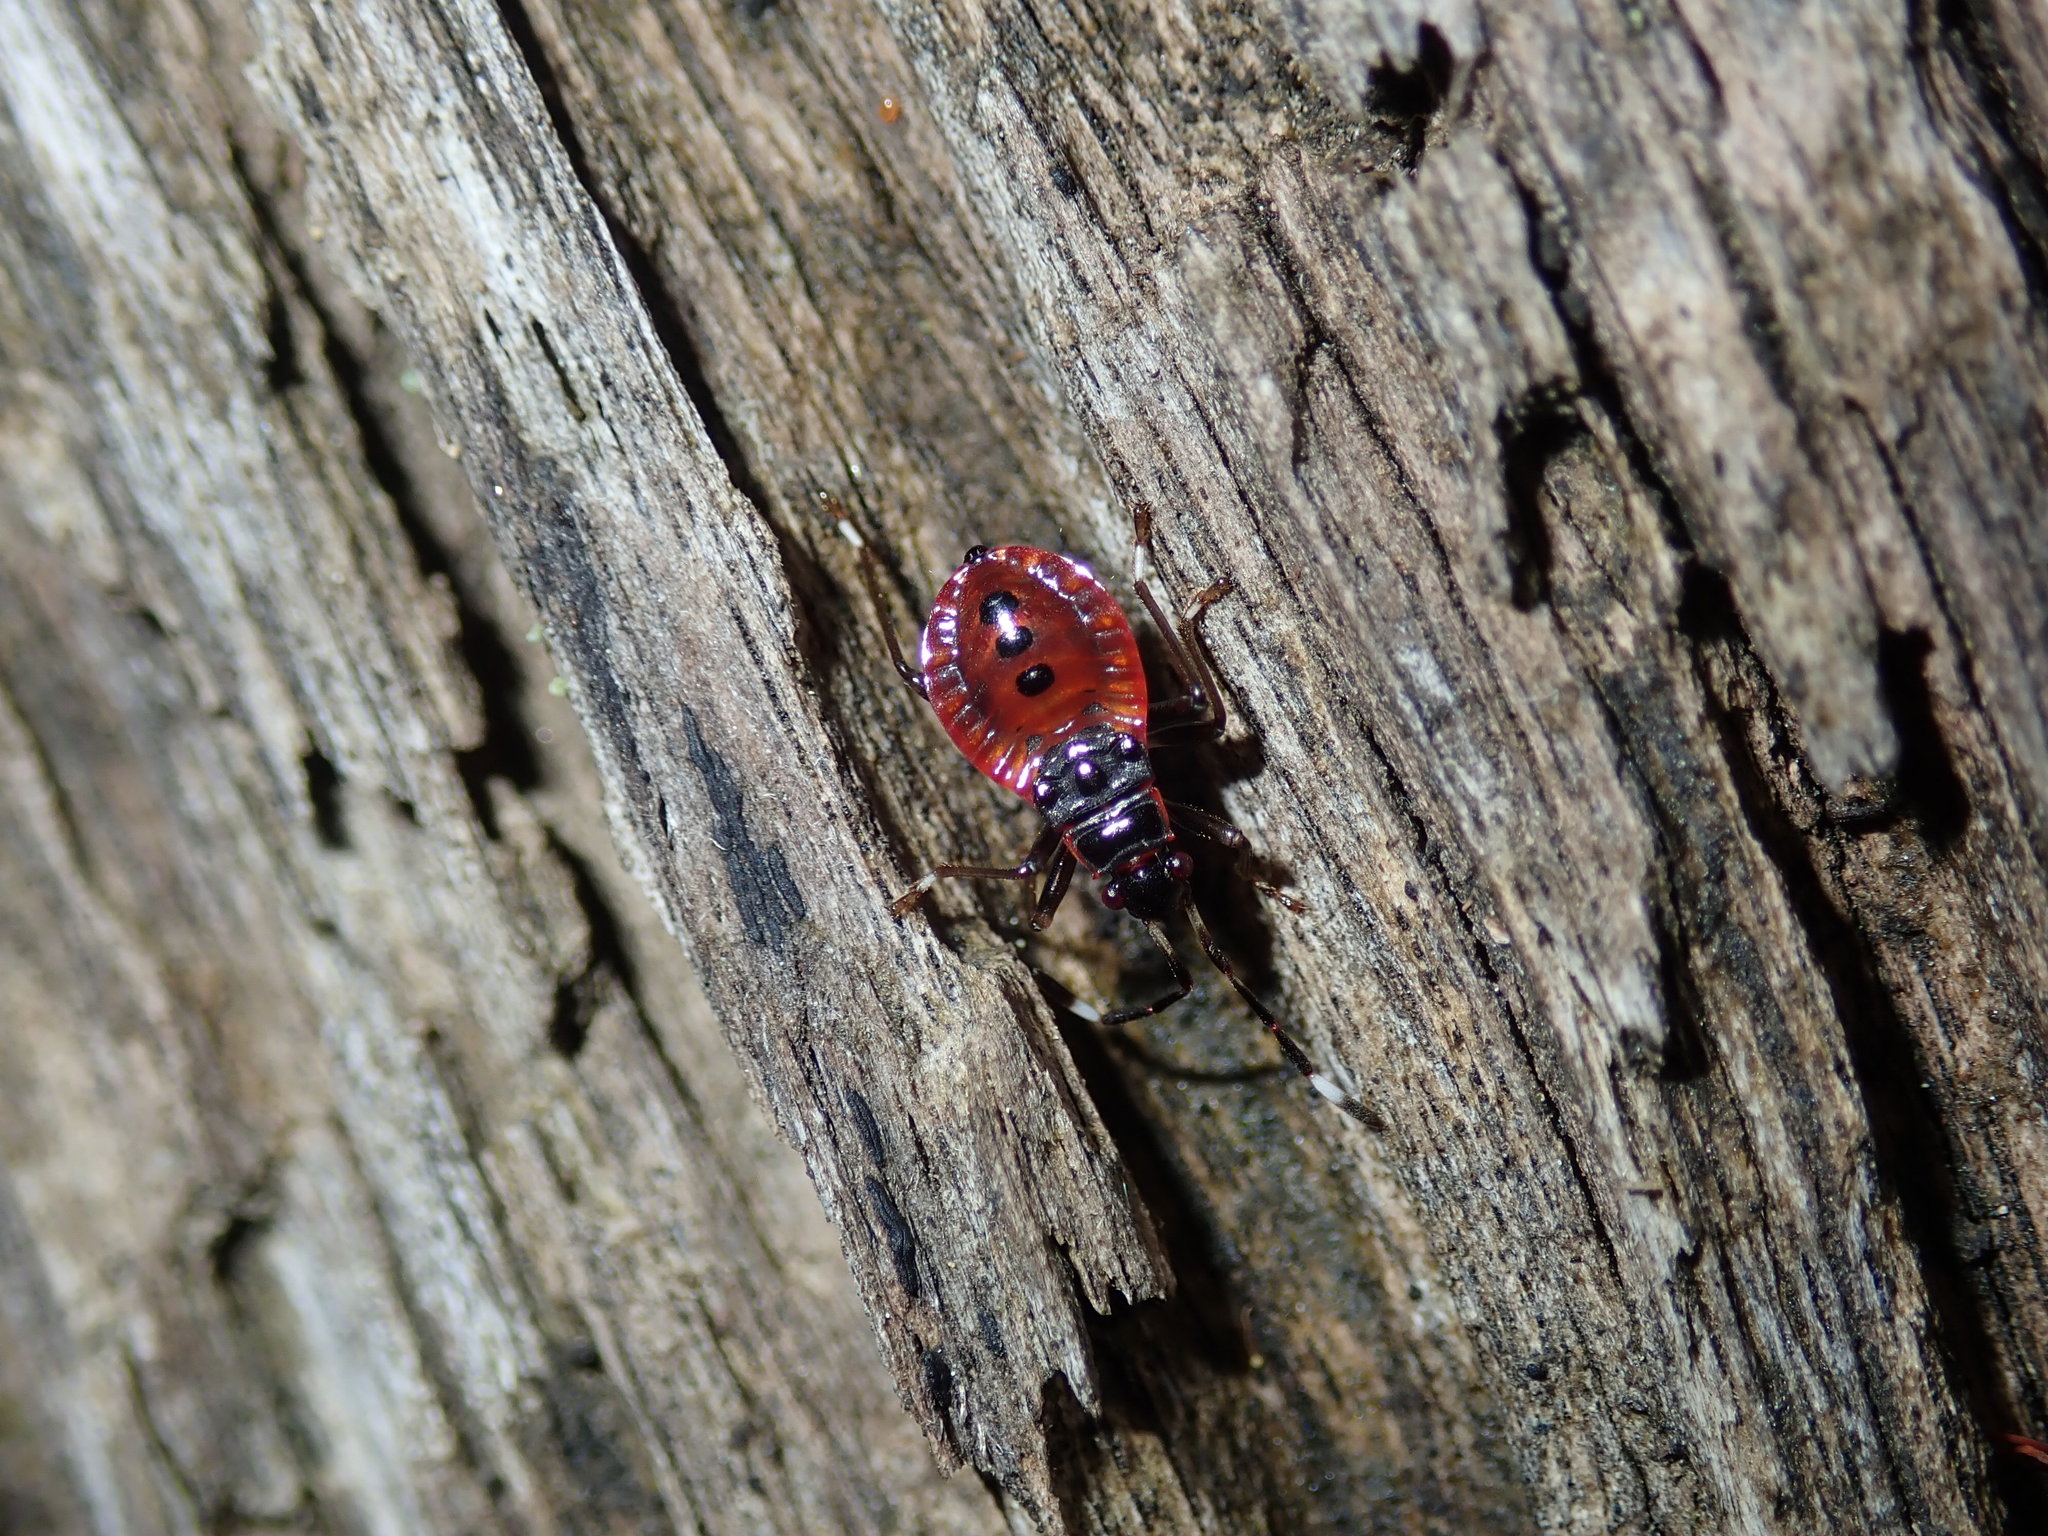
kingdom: Animalia
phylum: Arthropoda
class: Insecta
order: Hemiptera
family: Pyrrhocoridae
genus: Dindymus
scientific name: Dindymus
